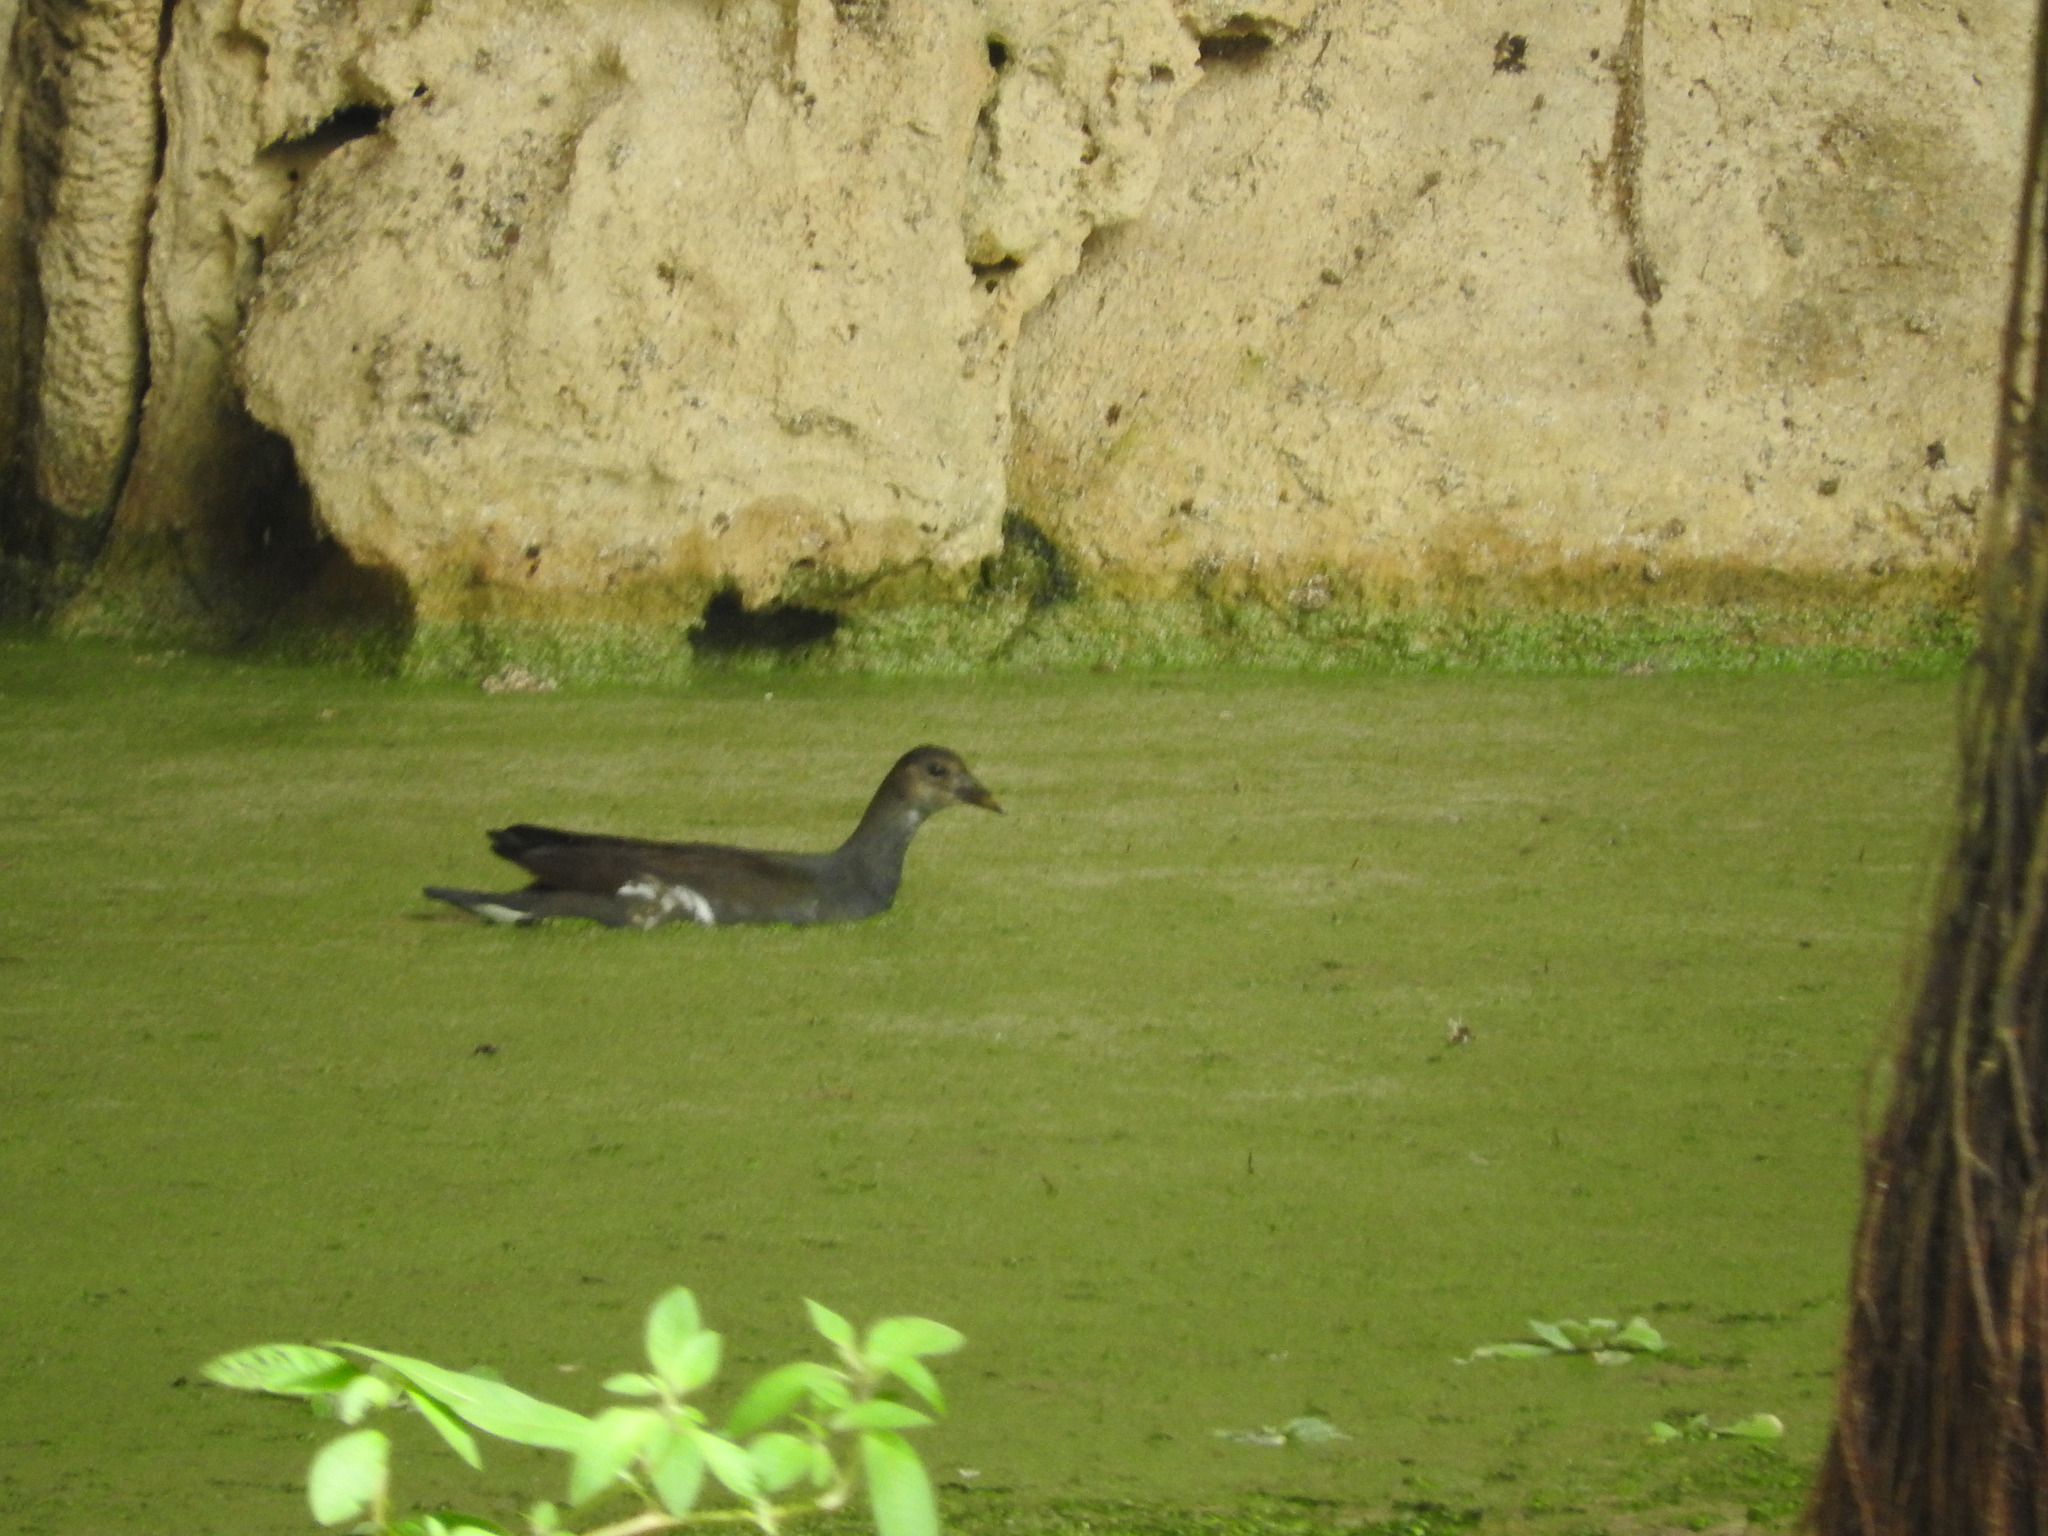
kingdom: Animalia
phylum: Chordata
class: Aves
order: Gruiformes
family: Rallidae
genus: Gallinula
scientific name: Gallinula chloropus
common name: Common moorhen
